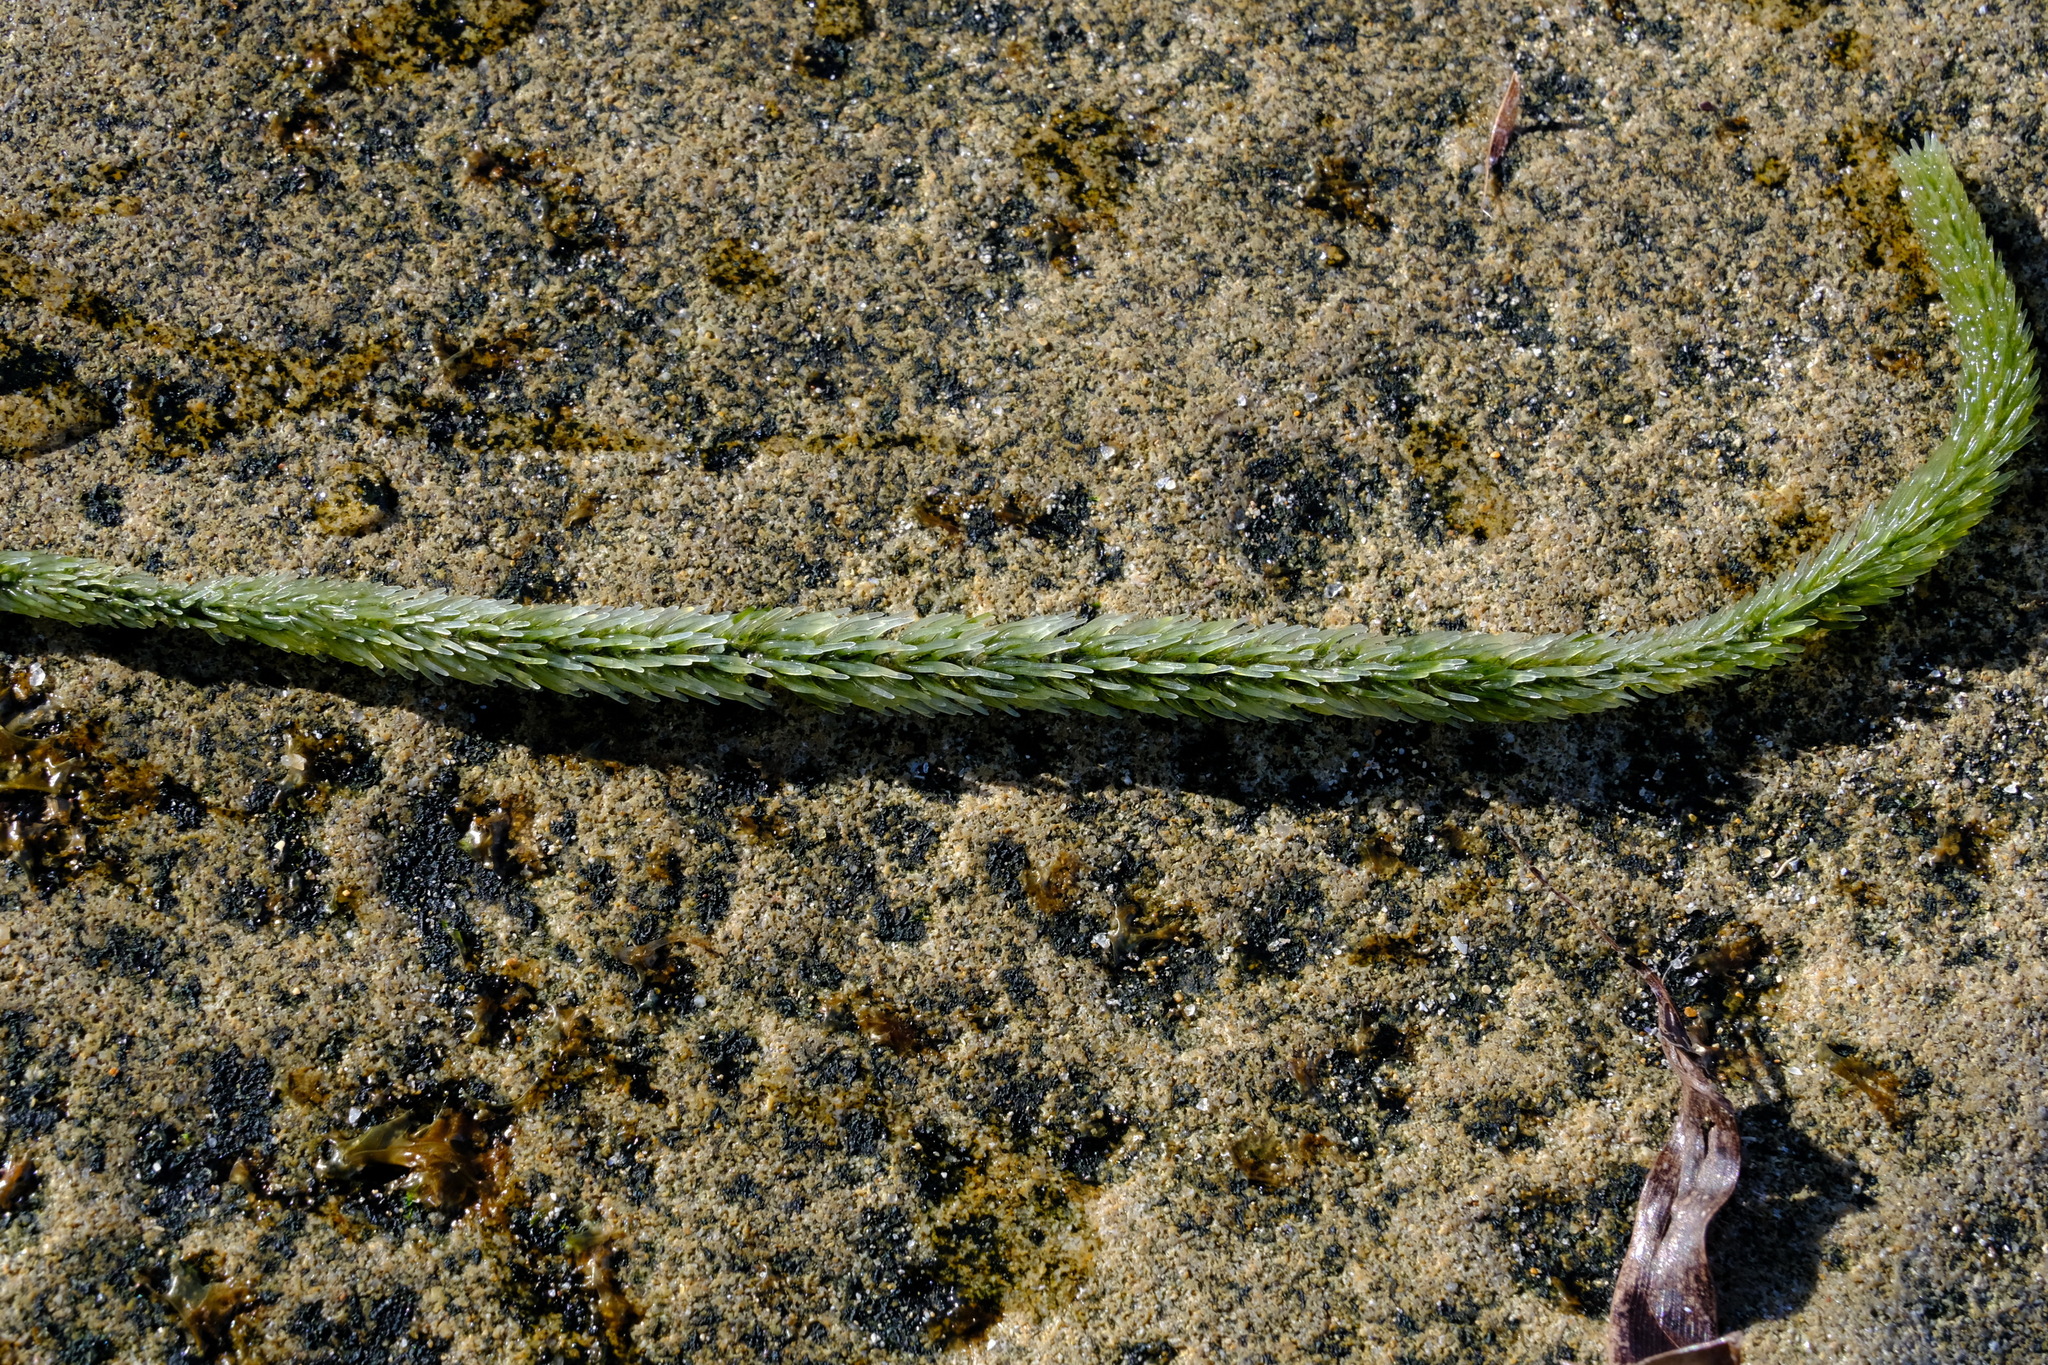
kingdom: Plantae
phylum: Chlorophyta
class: Ulvophyceae
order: Bryopsidales
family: Caulerpaceae
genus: Caulerpa
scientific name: Caulerpa brownii
